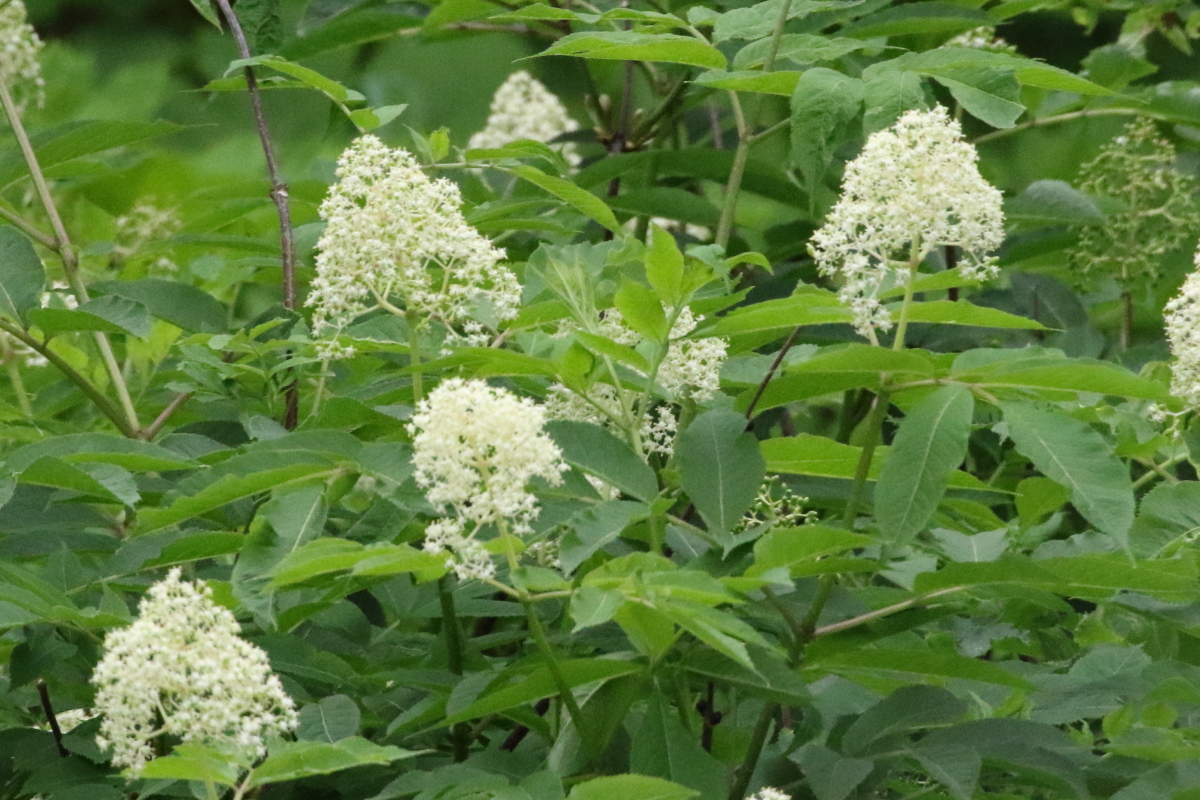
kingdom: Plantae
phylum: Tracheophyta
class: Magnoliopsida
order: Dipsacales
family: Viburnaceae
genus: Sambucus
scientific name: Sambucus racemosa
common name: Red-berried elder
